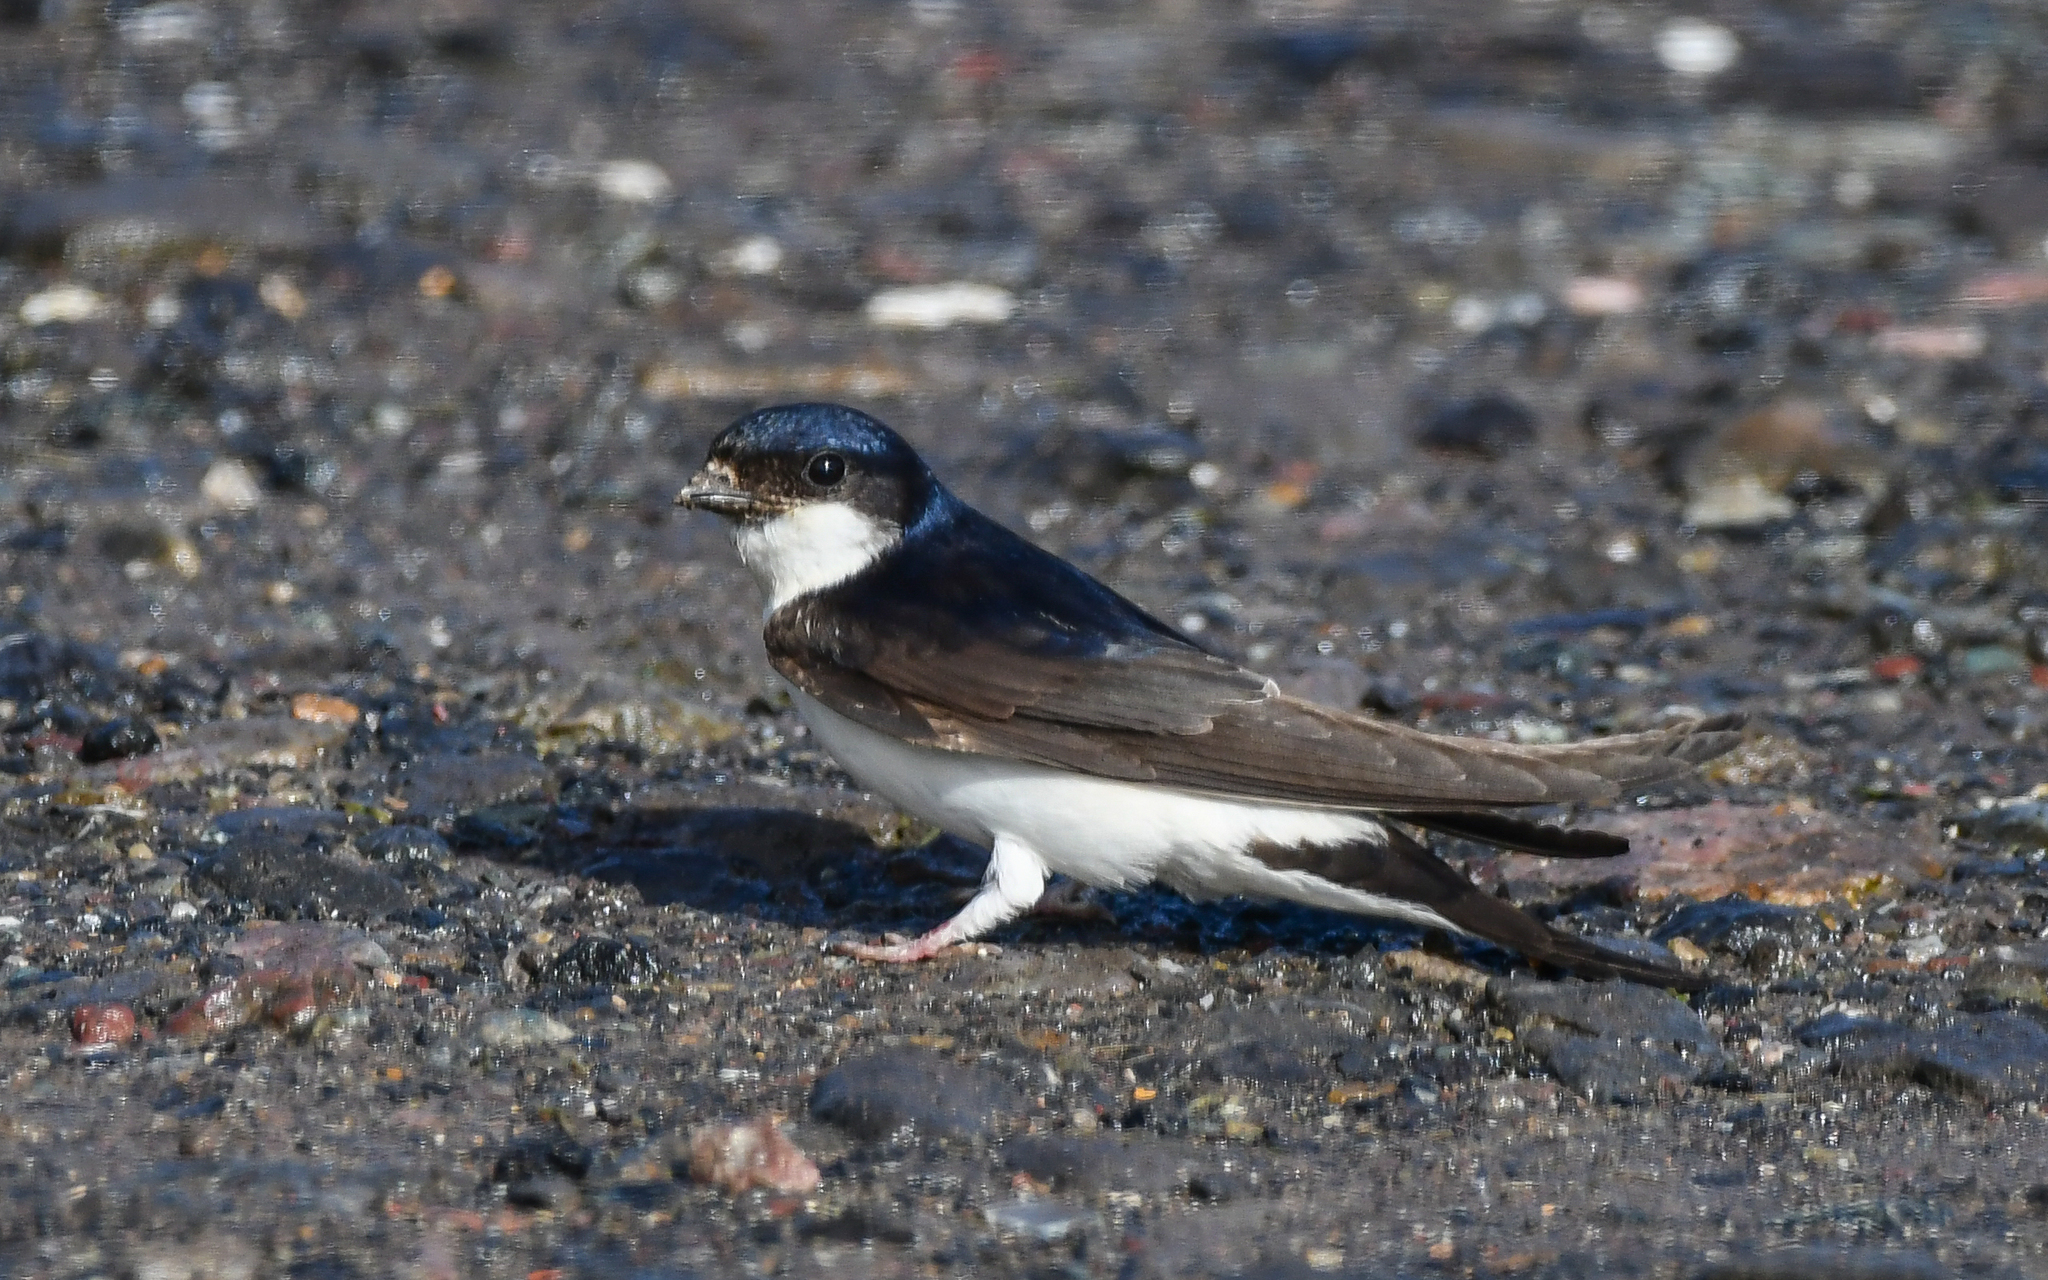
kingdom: Animalia
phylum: Chordata
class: Aves
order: Passeriformes
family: Hirundinidae
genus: Delichon
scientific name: Delichon urbicum
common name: Common house martin
